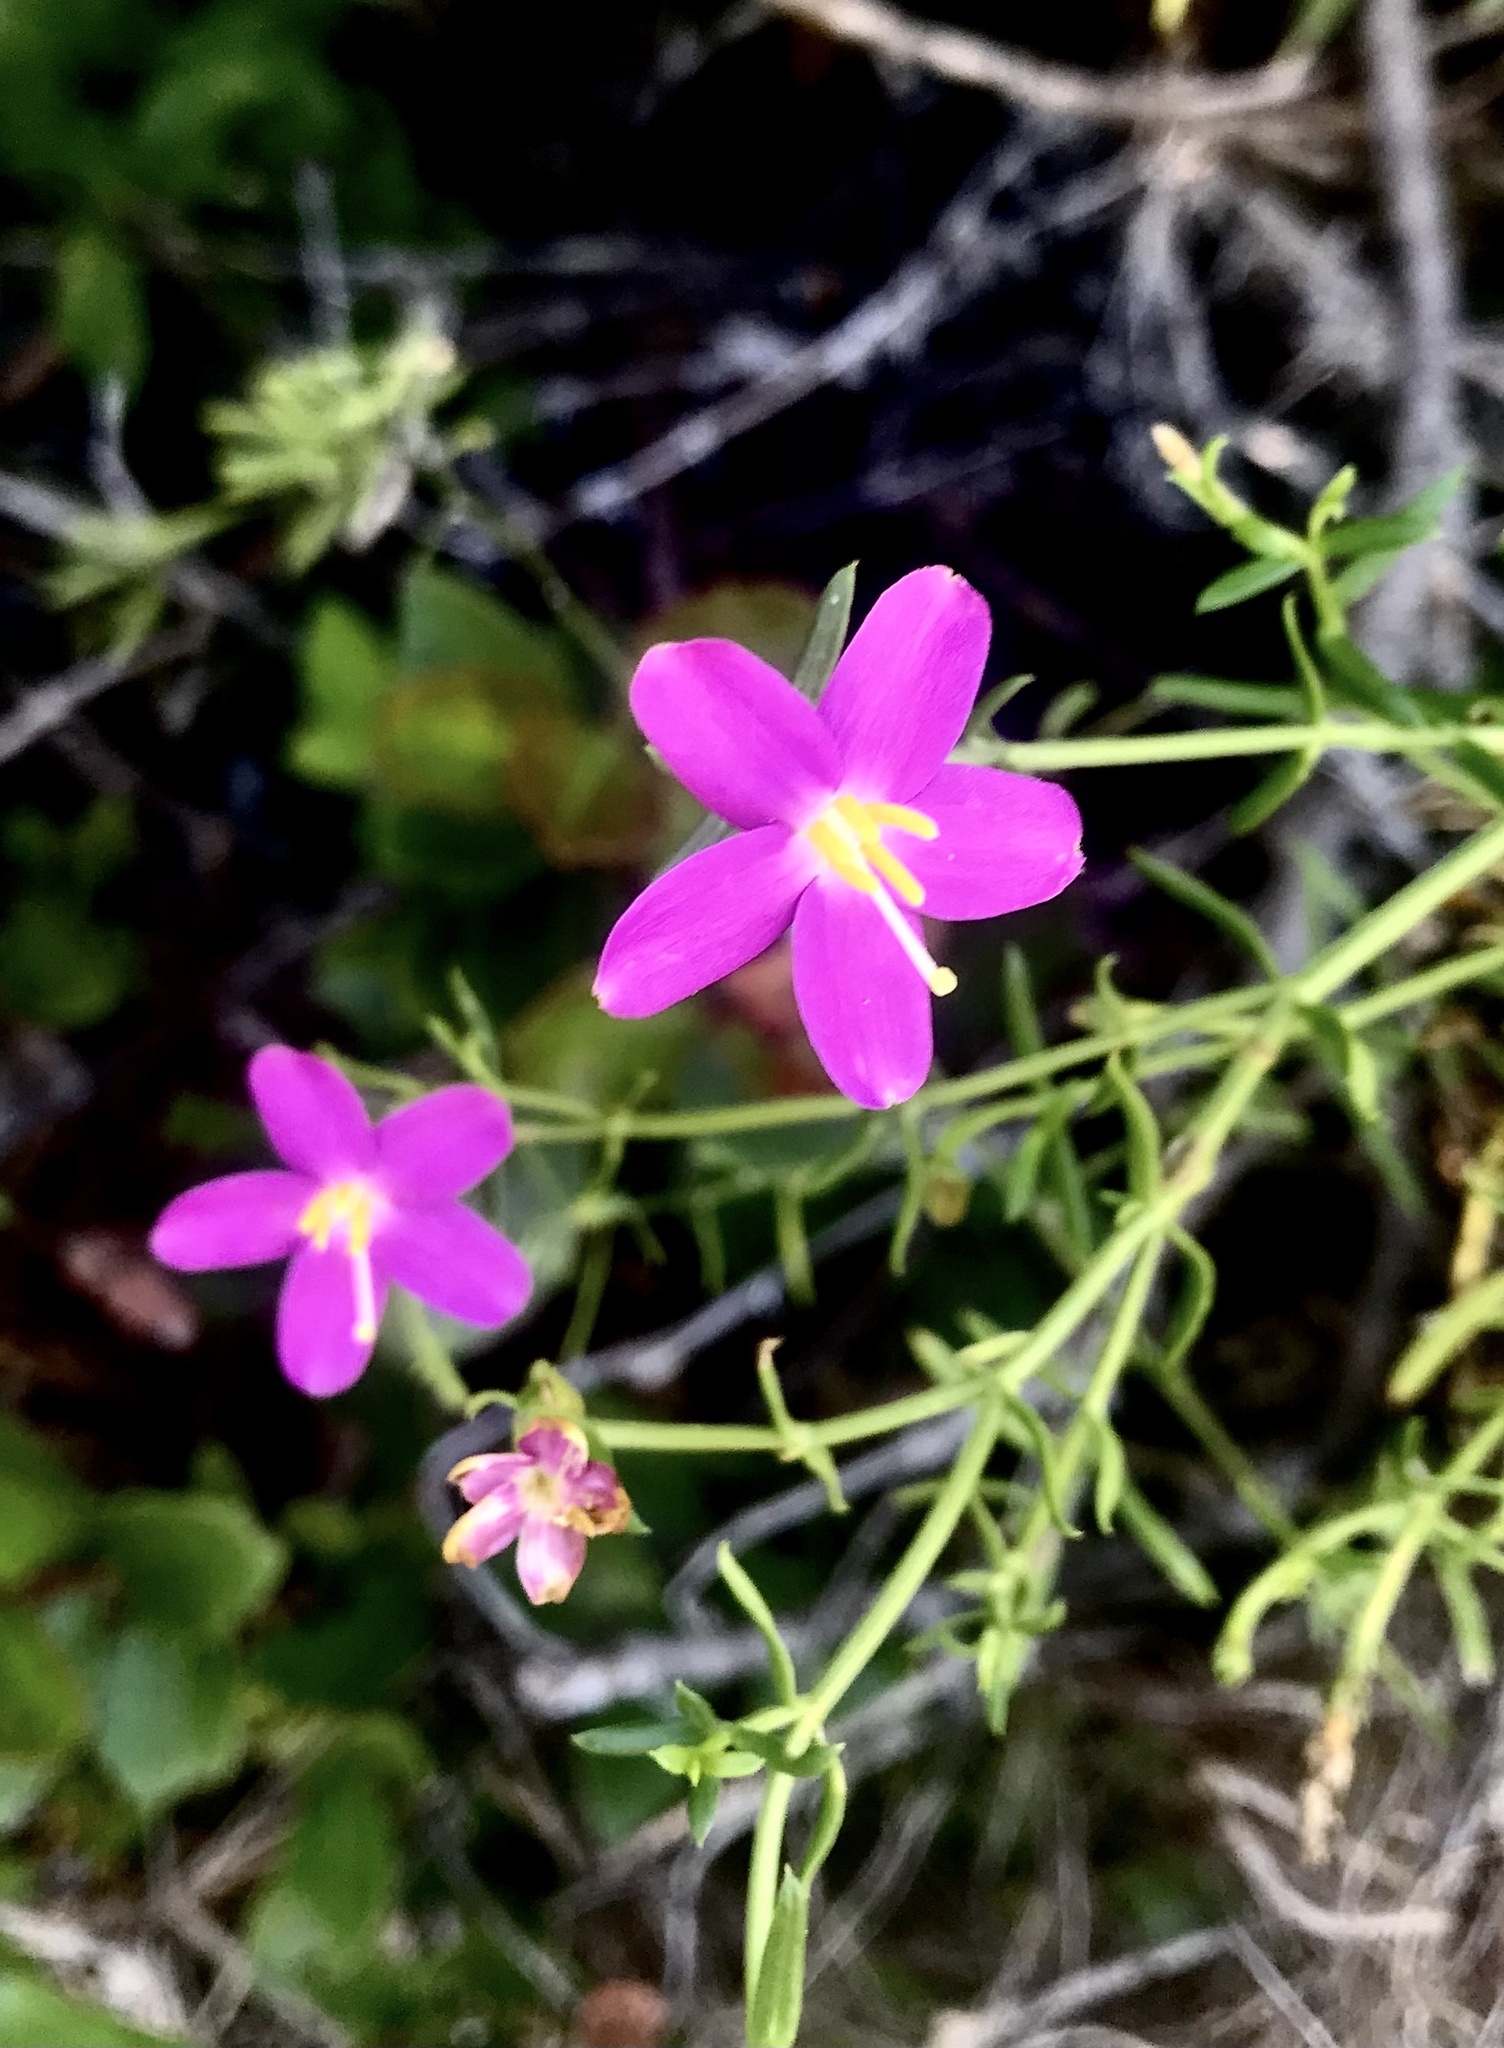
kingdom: Plantae
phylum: Tracheophyta
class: Magnoliopsida
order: Gentianales
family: Gentianaceae
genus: Chironia
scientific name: Chironia baccifera
